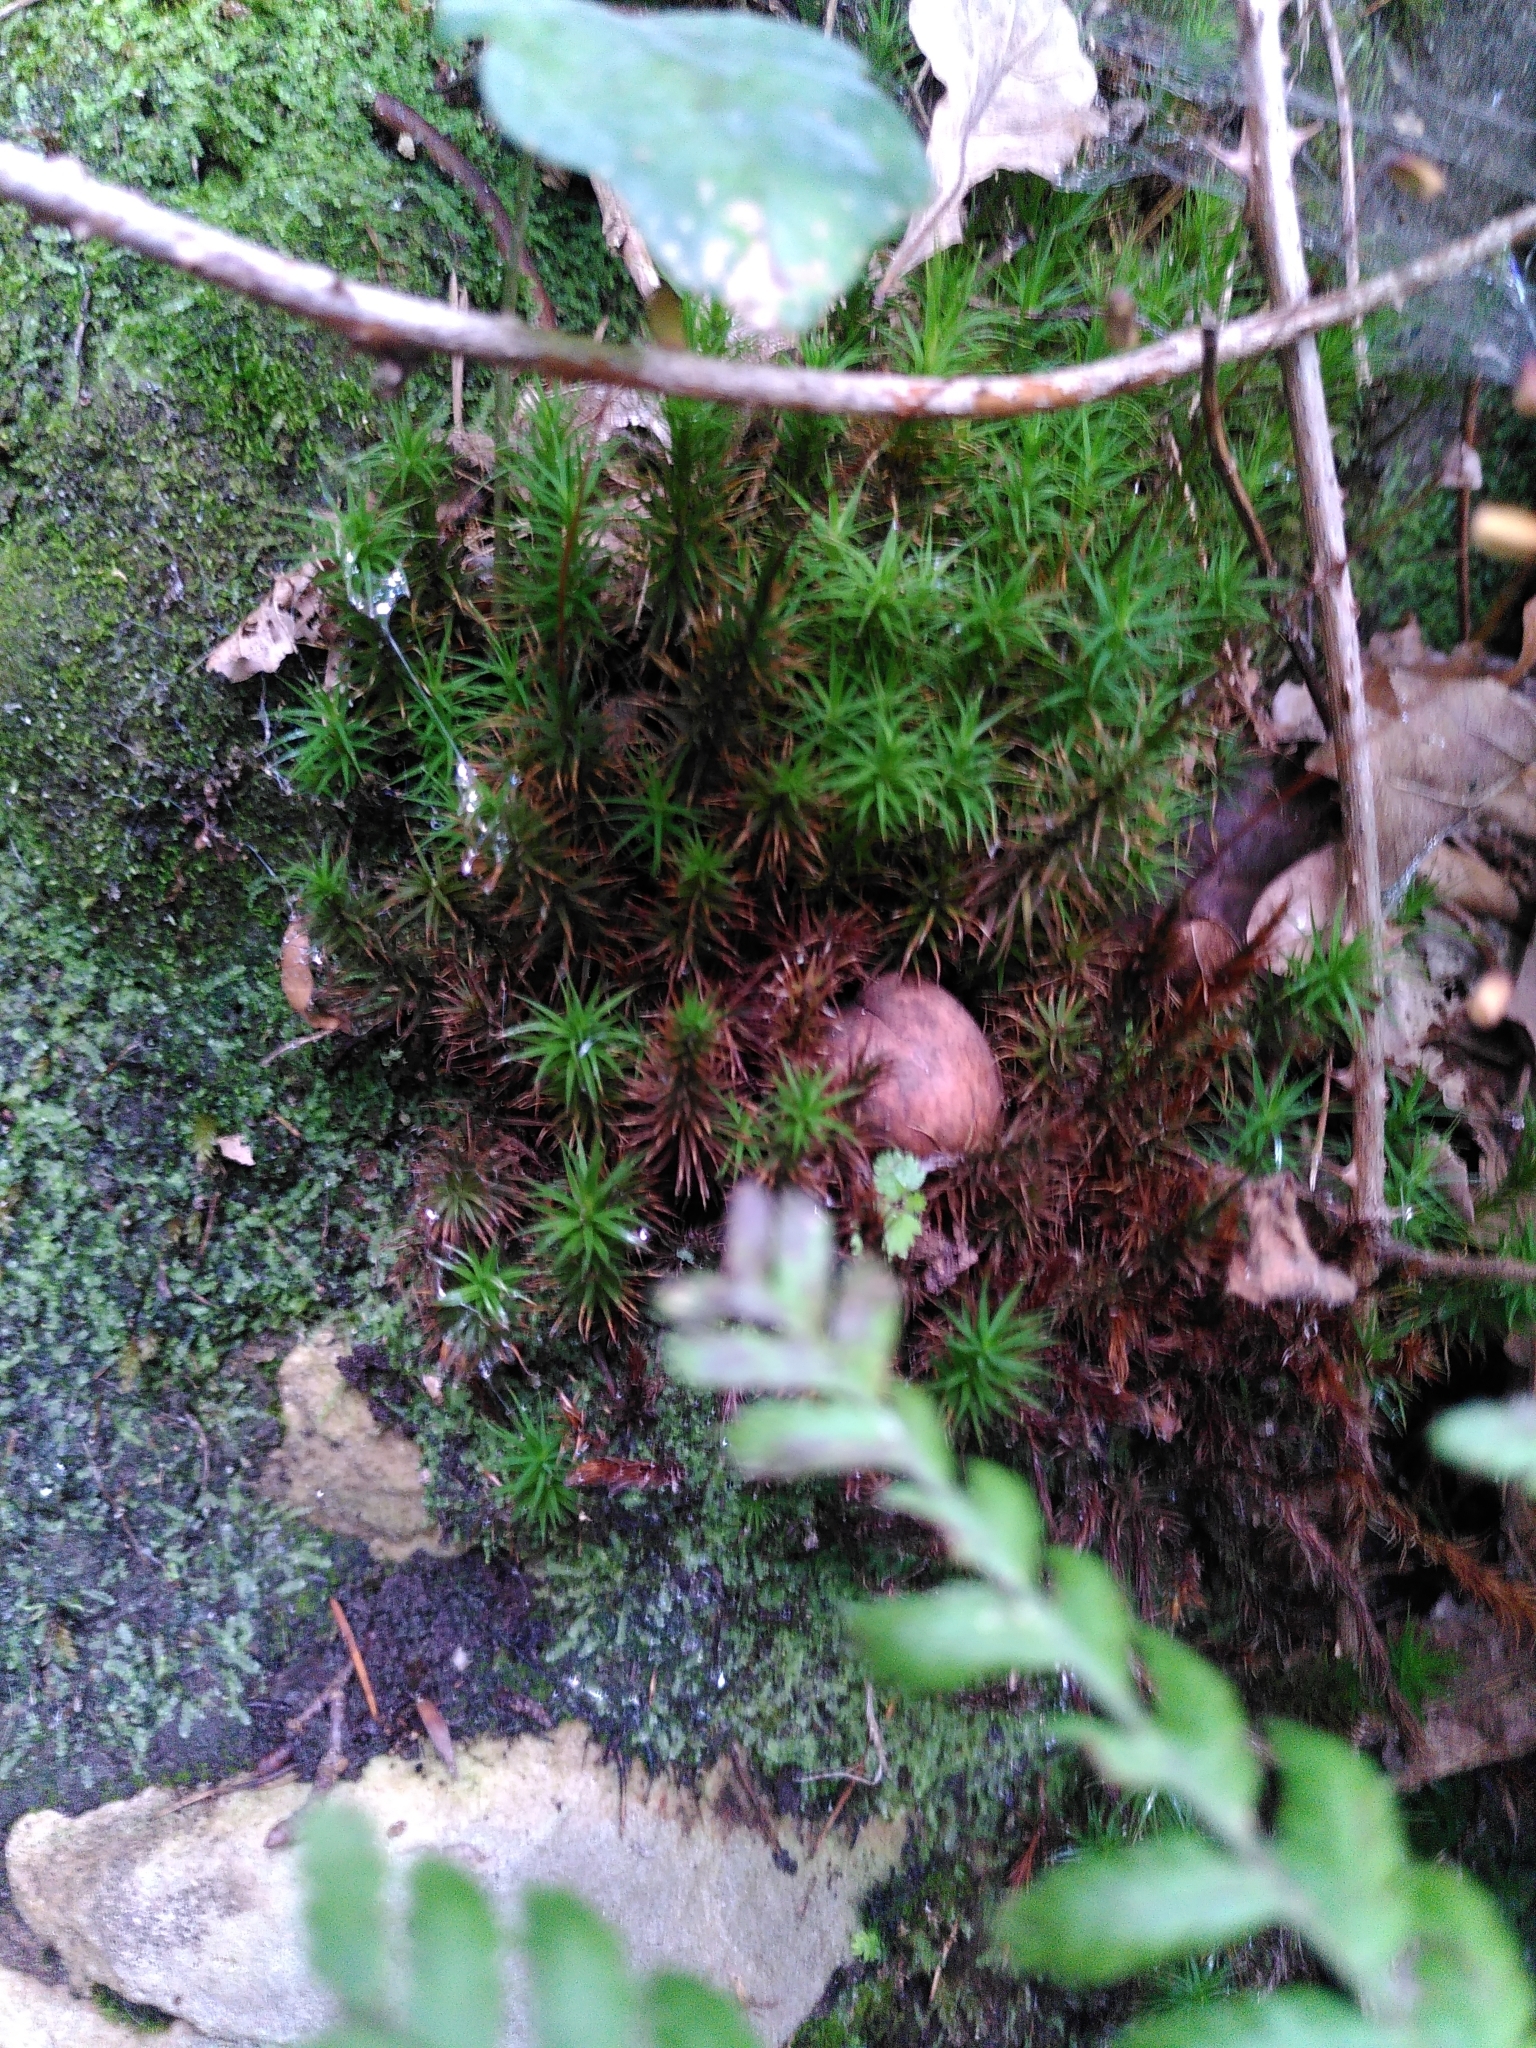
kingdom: Plantae
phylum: Bryophyta
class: Polytrichopsida
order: Polytrichales
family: Polytrichaceae
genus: Polytrichum
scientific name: Polytrichum formosum
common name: Bank haircap moss
